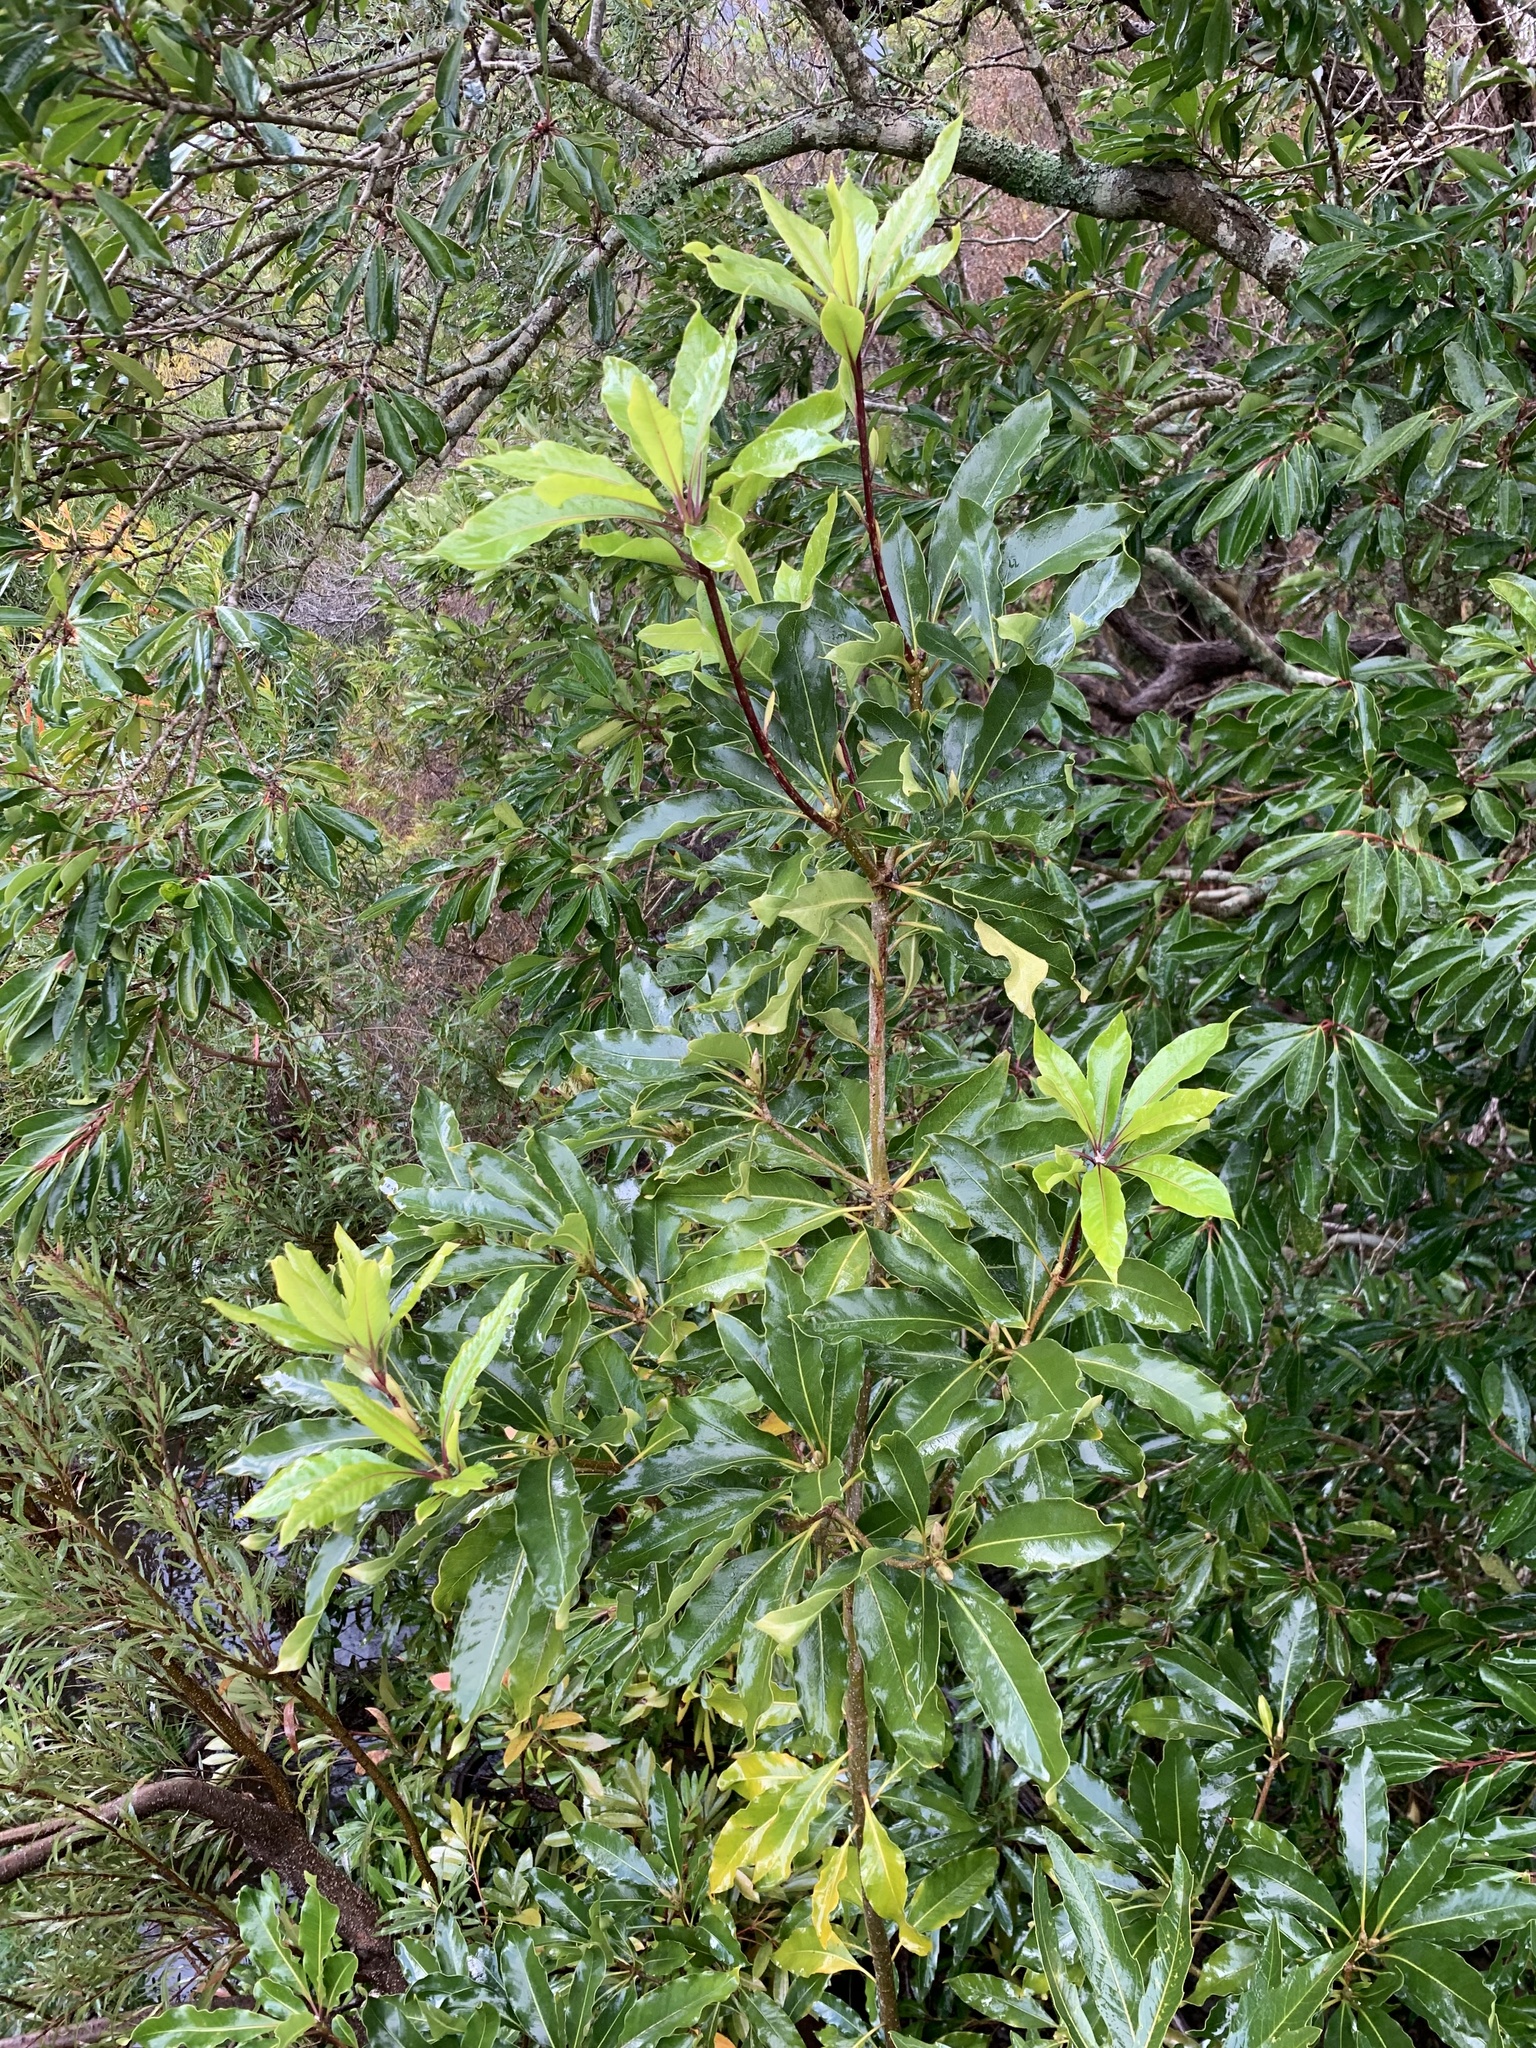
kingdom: Plantae
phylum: Tracheophyta
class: Magnoliopsida
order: Apiales
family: Pittosporaceae
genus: Pittosporum
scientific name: Pittosporum undulatum
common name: Australian cheesewood
